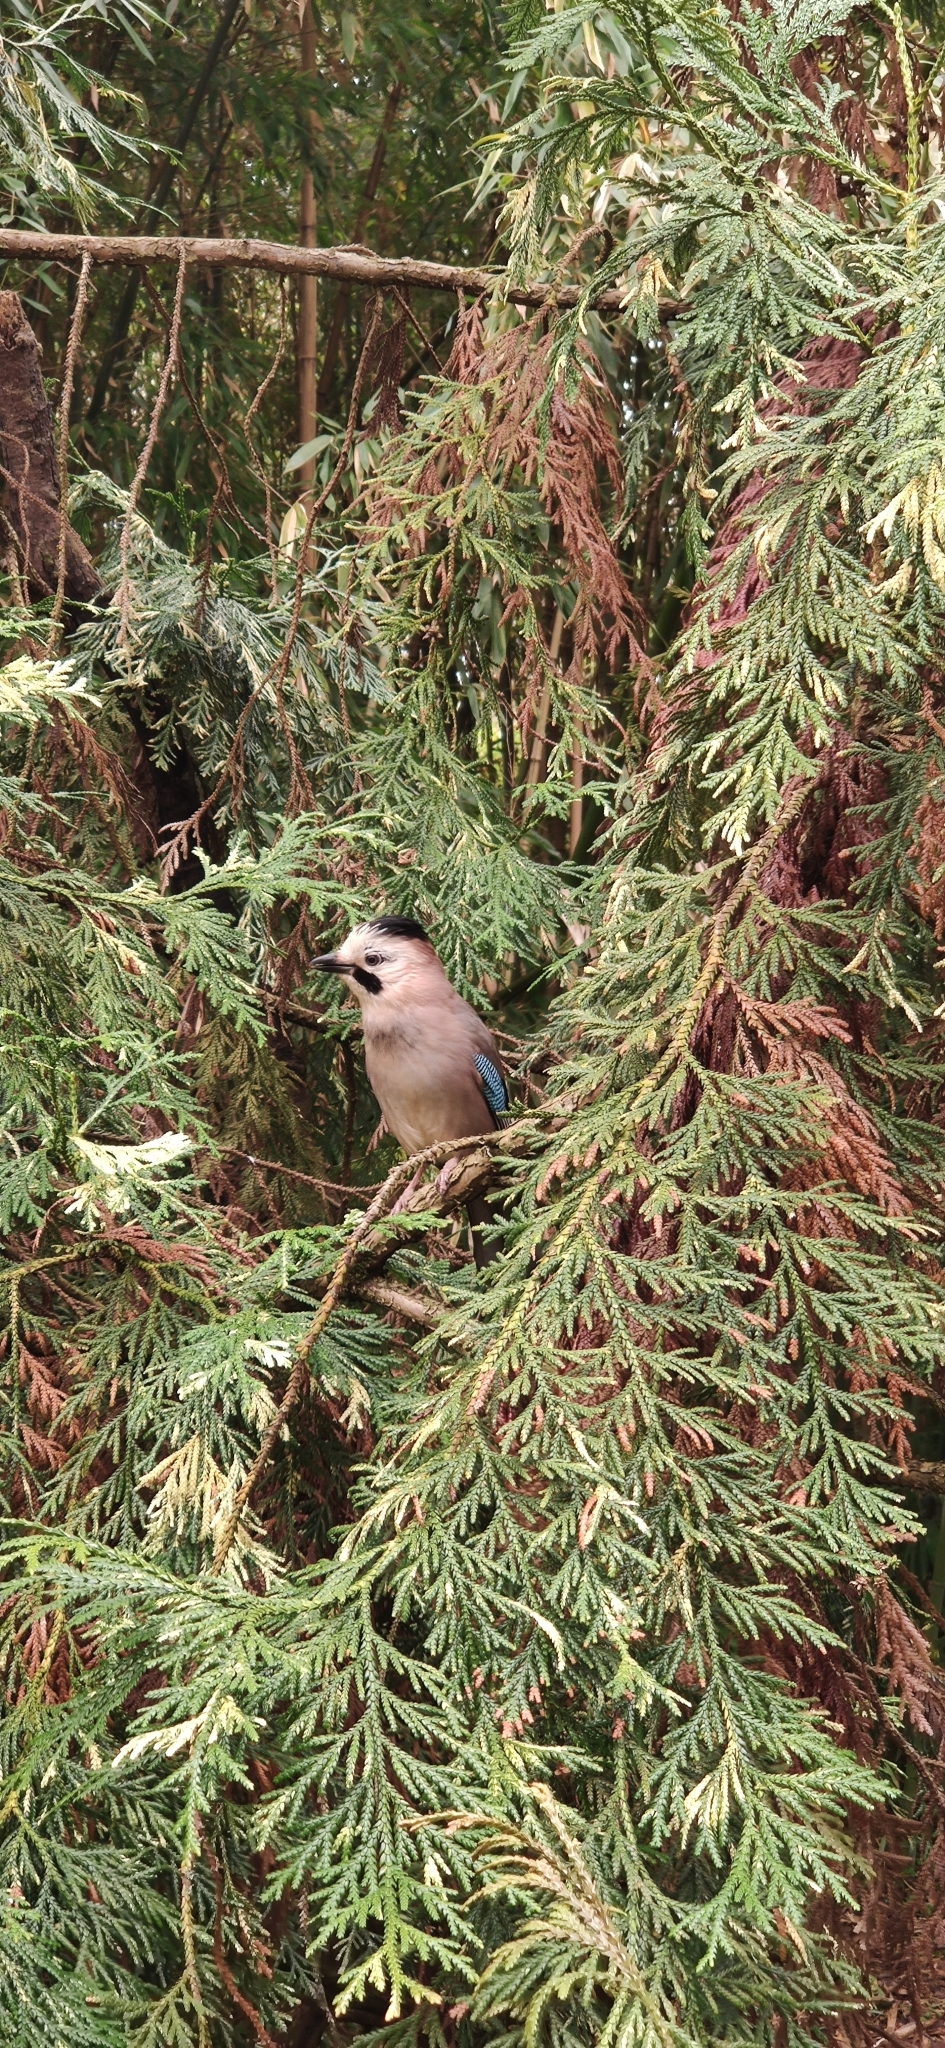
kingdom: Animalia
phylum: Chordata
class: Aves
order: Passeriformes
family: Corvidae
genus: Garrulus
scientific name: Garrulus glandarius
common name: Eurasian jay
